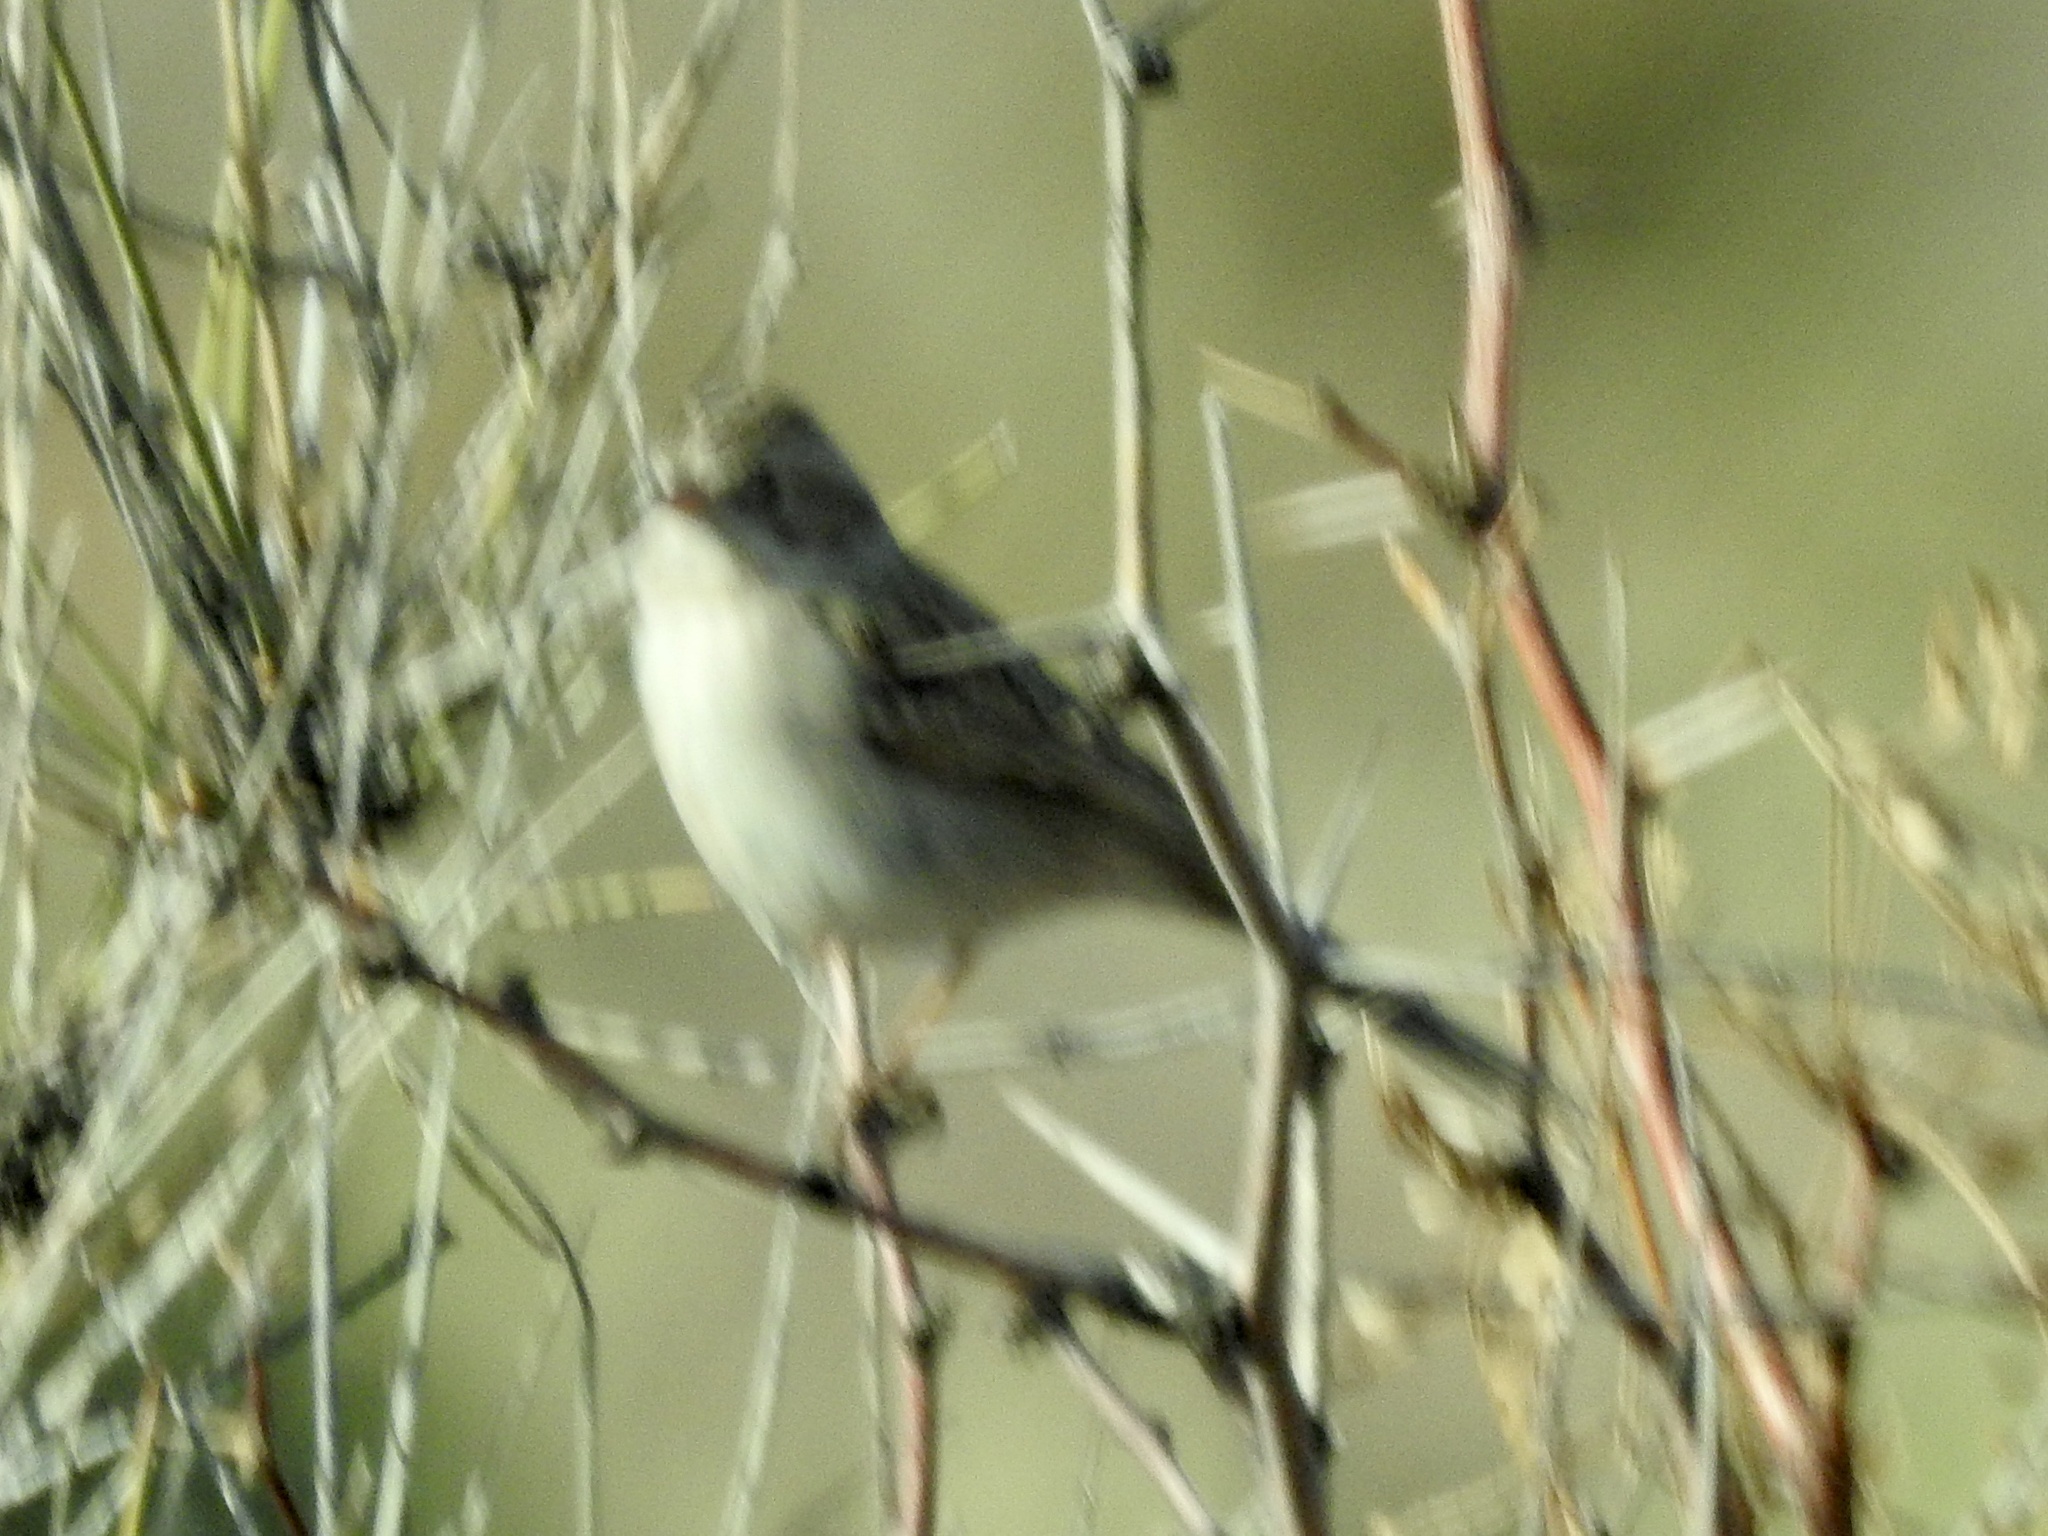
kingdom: Animalia
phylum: Chordata
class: Aves
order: Passeriformes
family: Passerellidae
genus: Spizella
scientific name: Spizella breweri
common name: Brewer's sparrow
